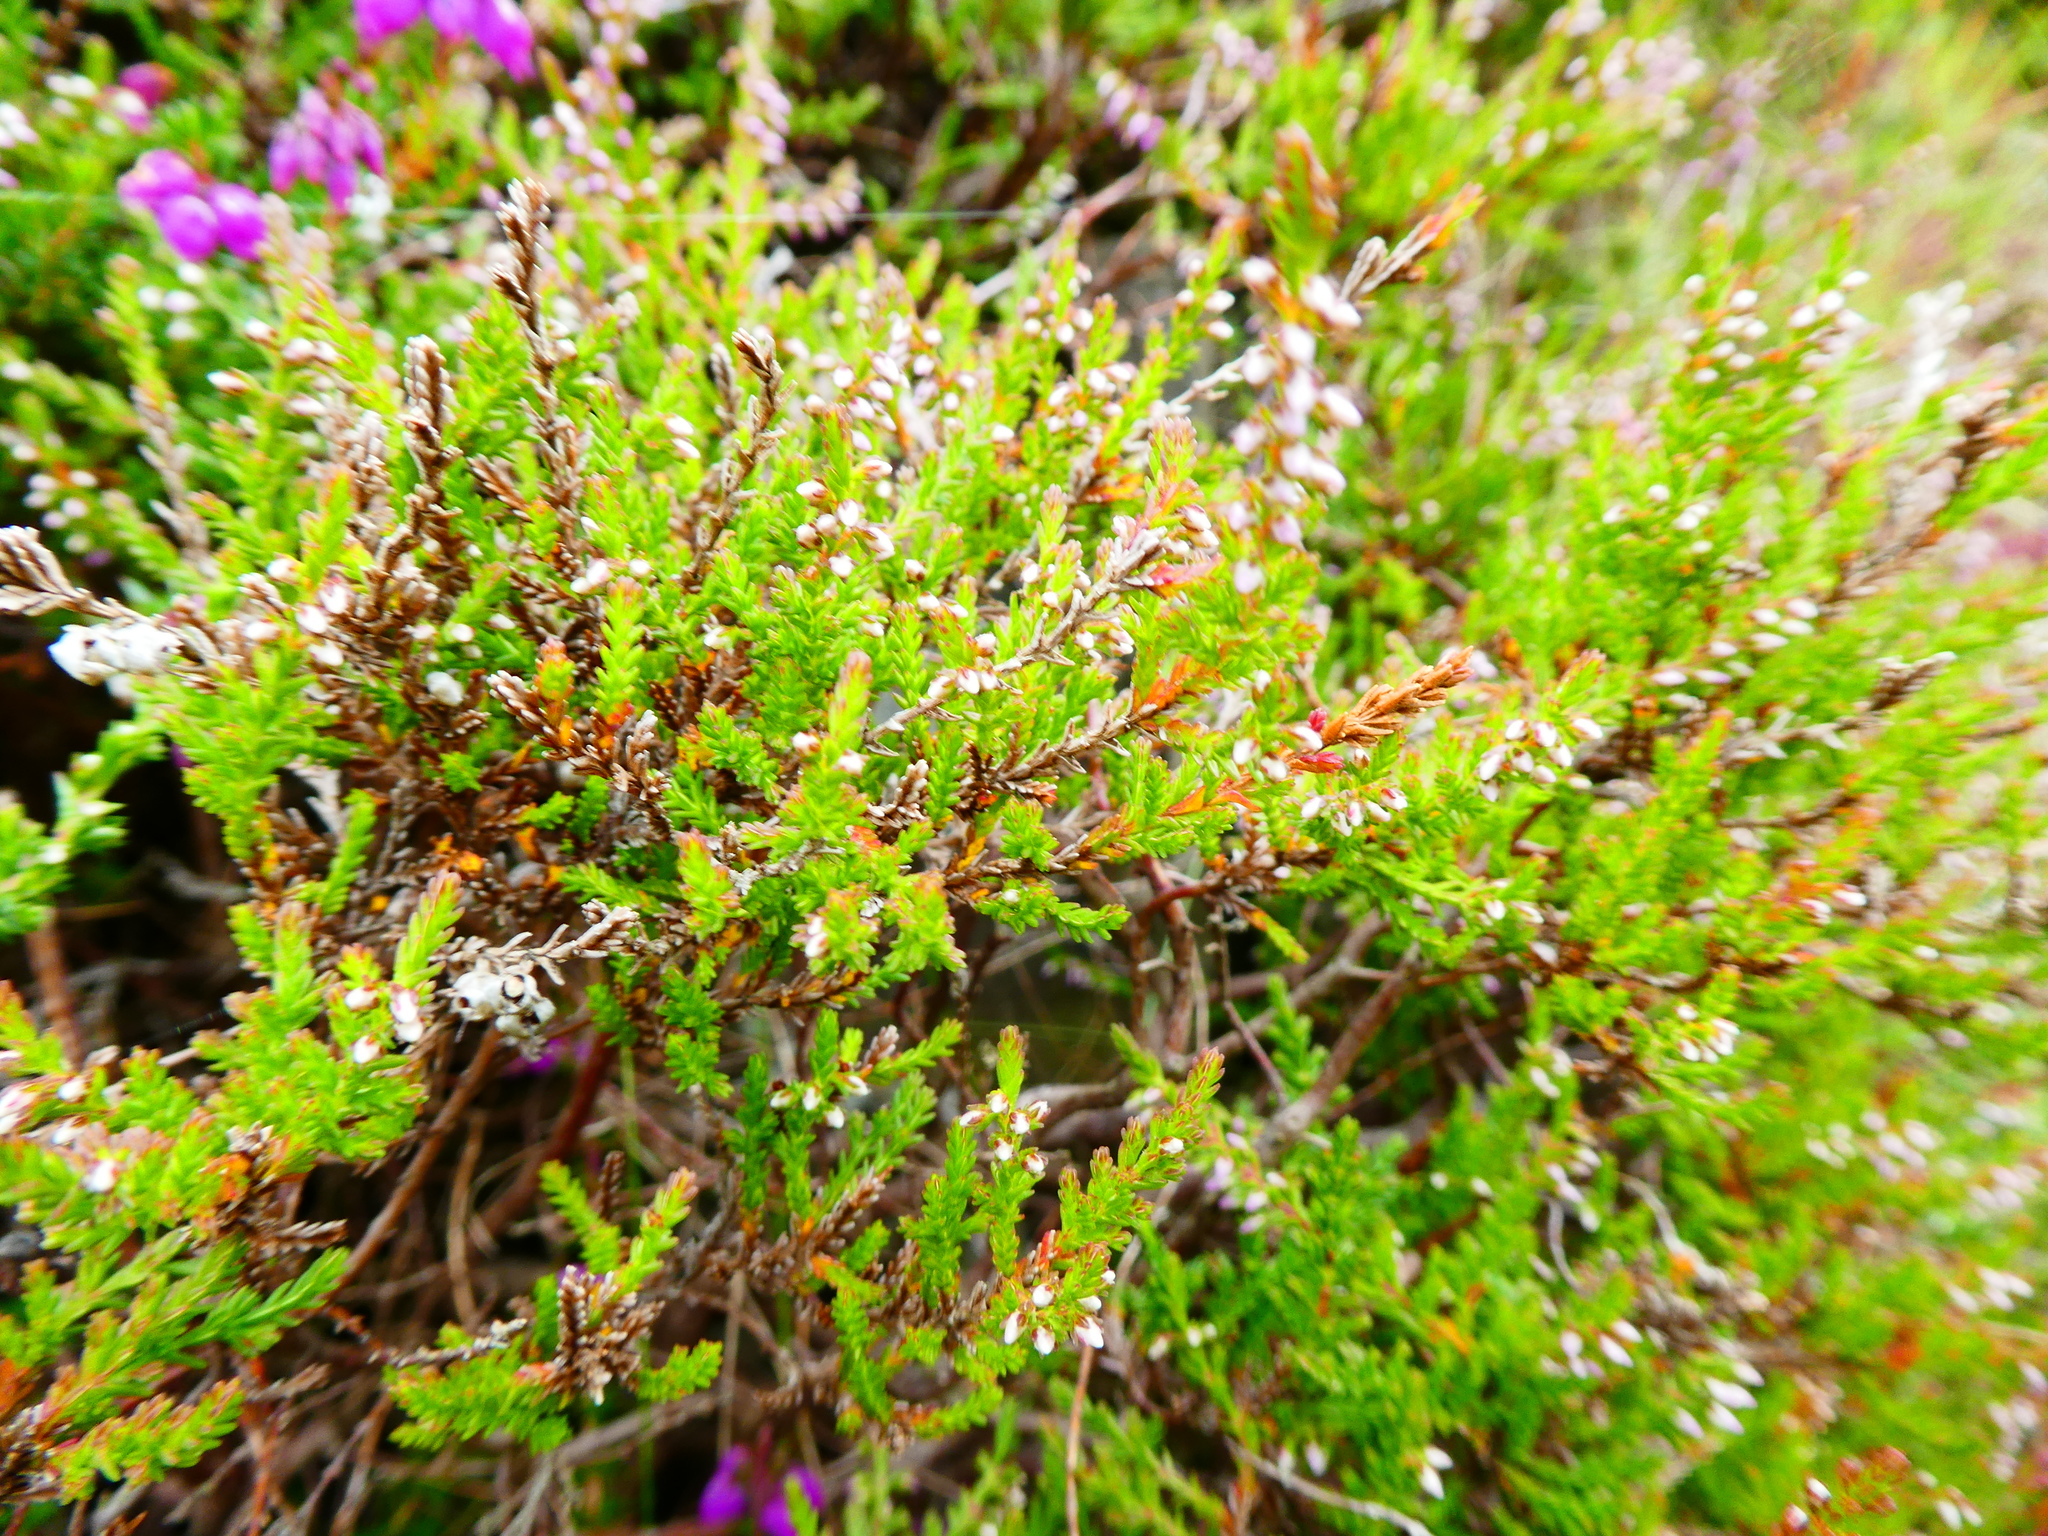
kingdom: Plantae
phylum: Tracheophyta
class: Magnoliopsida
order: Ericales
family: Ericaceae
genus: Calluna
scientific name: Calluna vulgaris
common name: Heather
